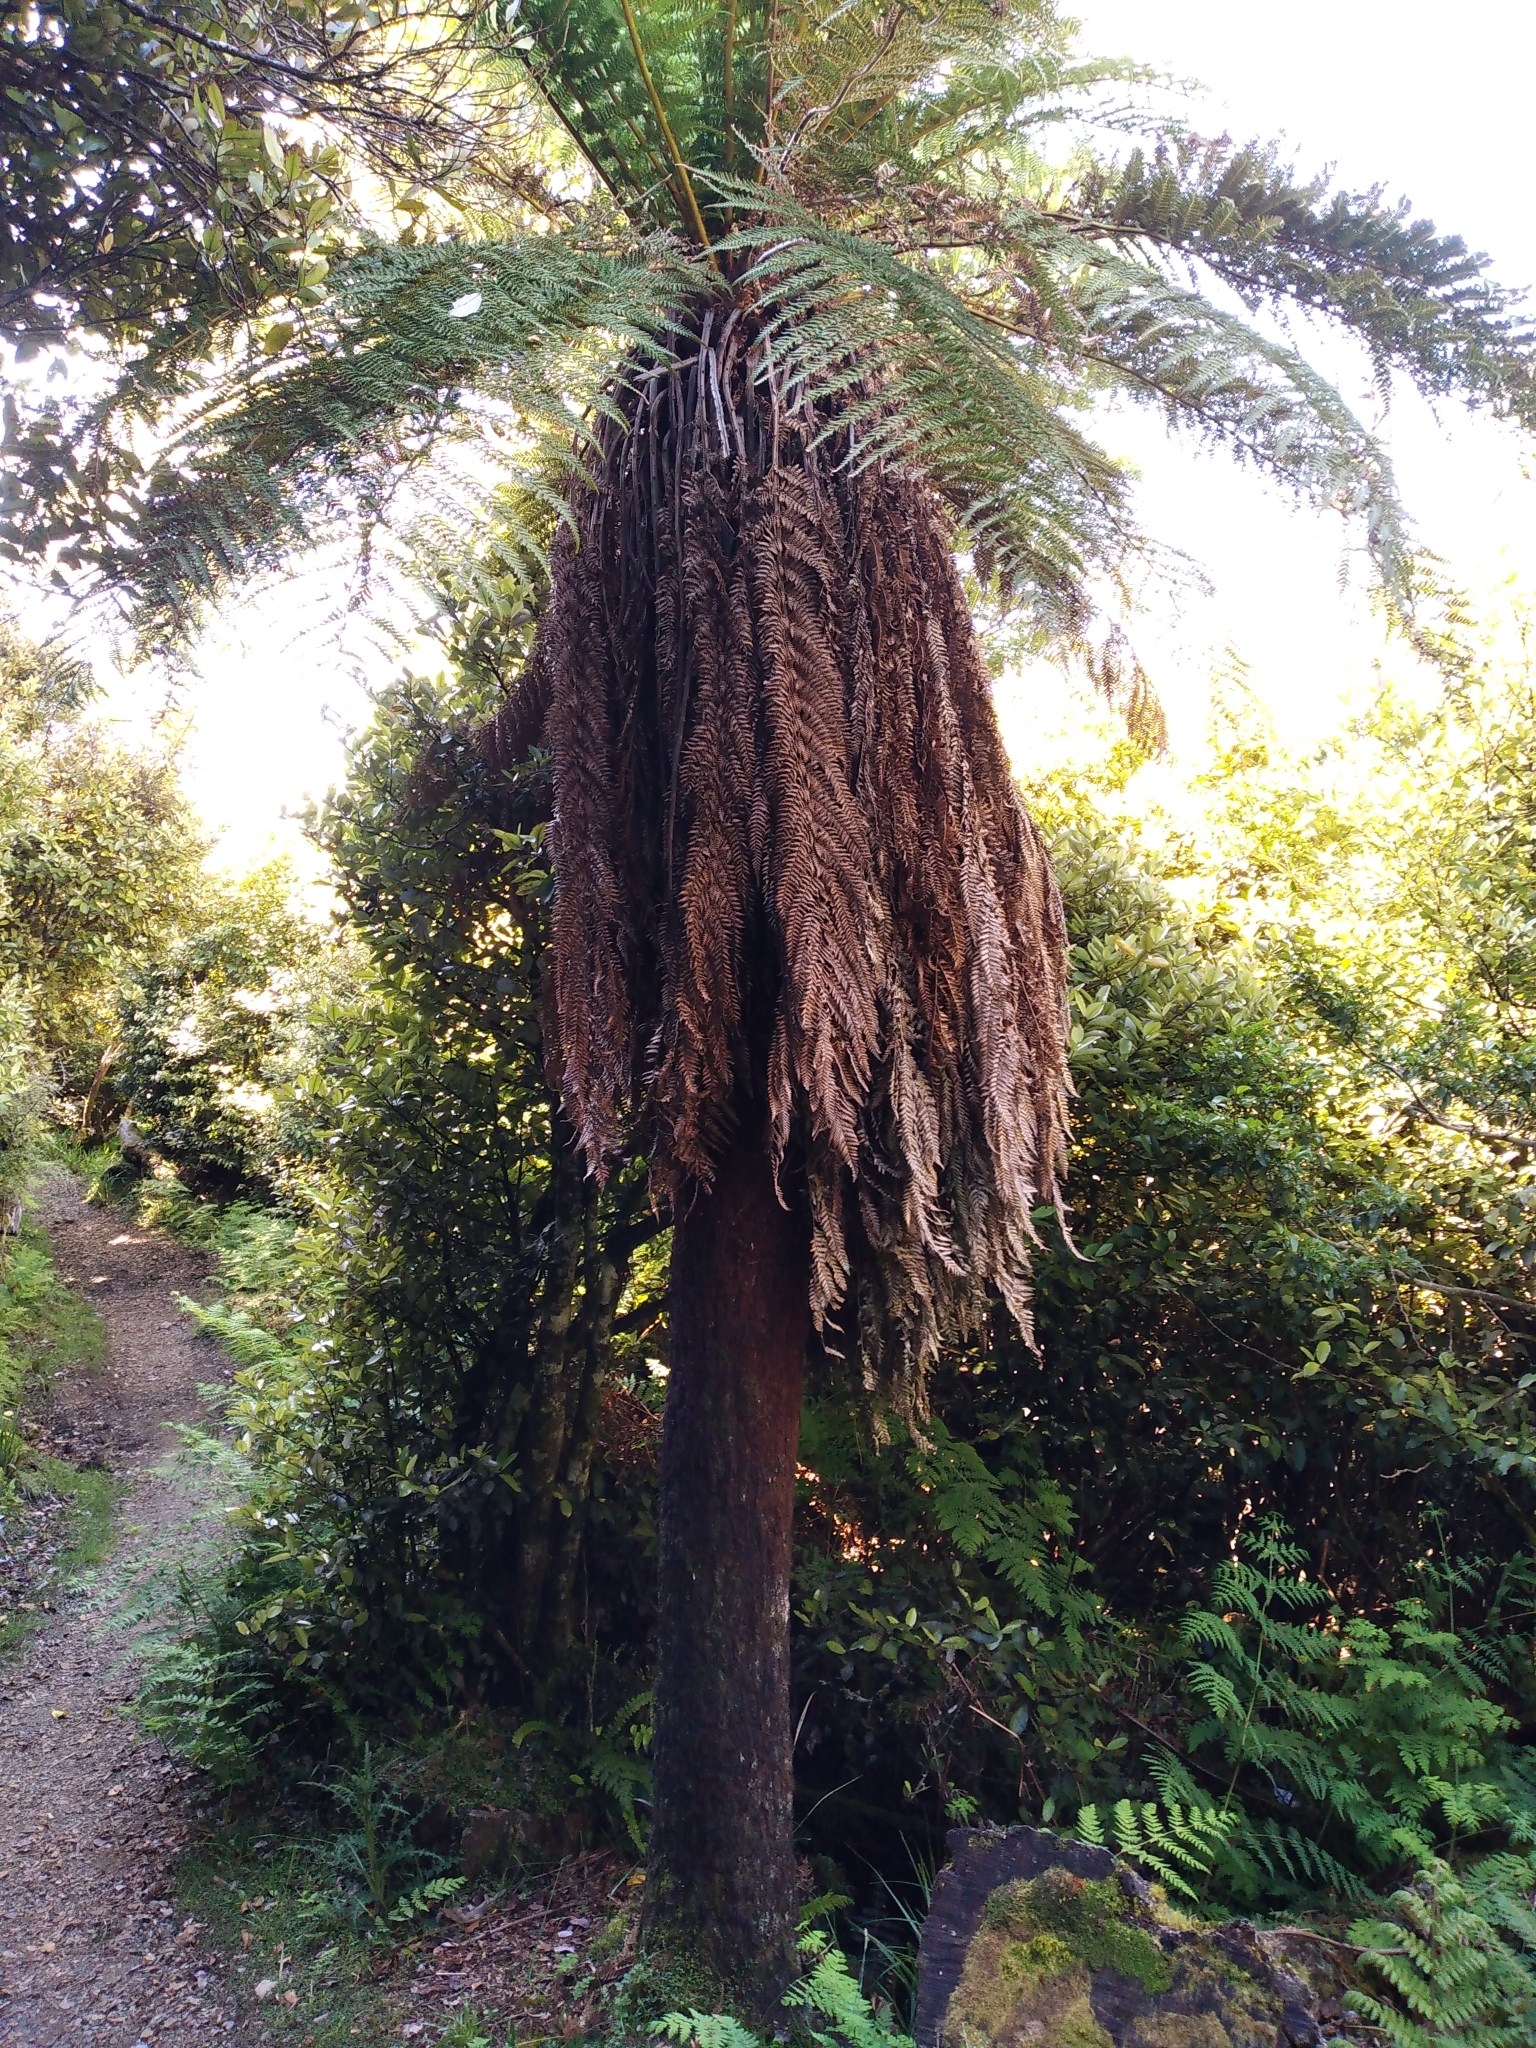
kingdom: Plantae
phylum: Tracheophyta
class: Polypodiopsida
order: Cyatheales
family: Dicksoniaceae
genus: Dicksonia
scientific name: Dicksonia fibrosa
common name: Golden tree fern
